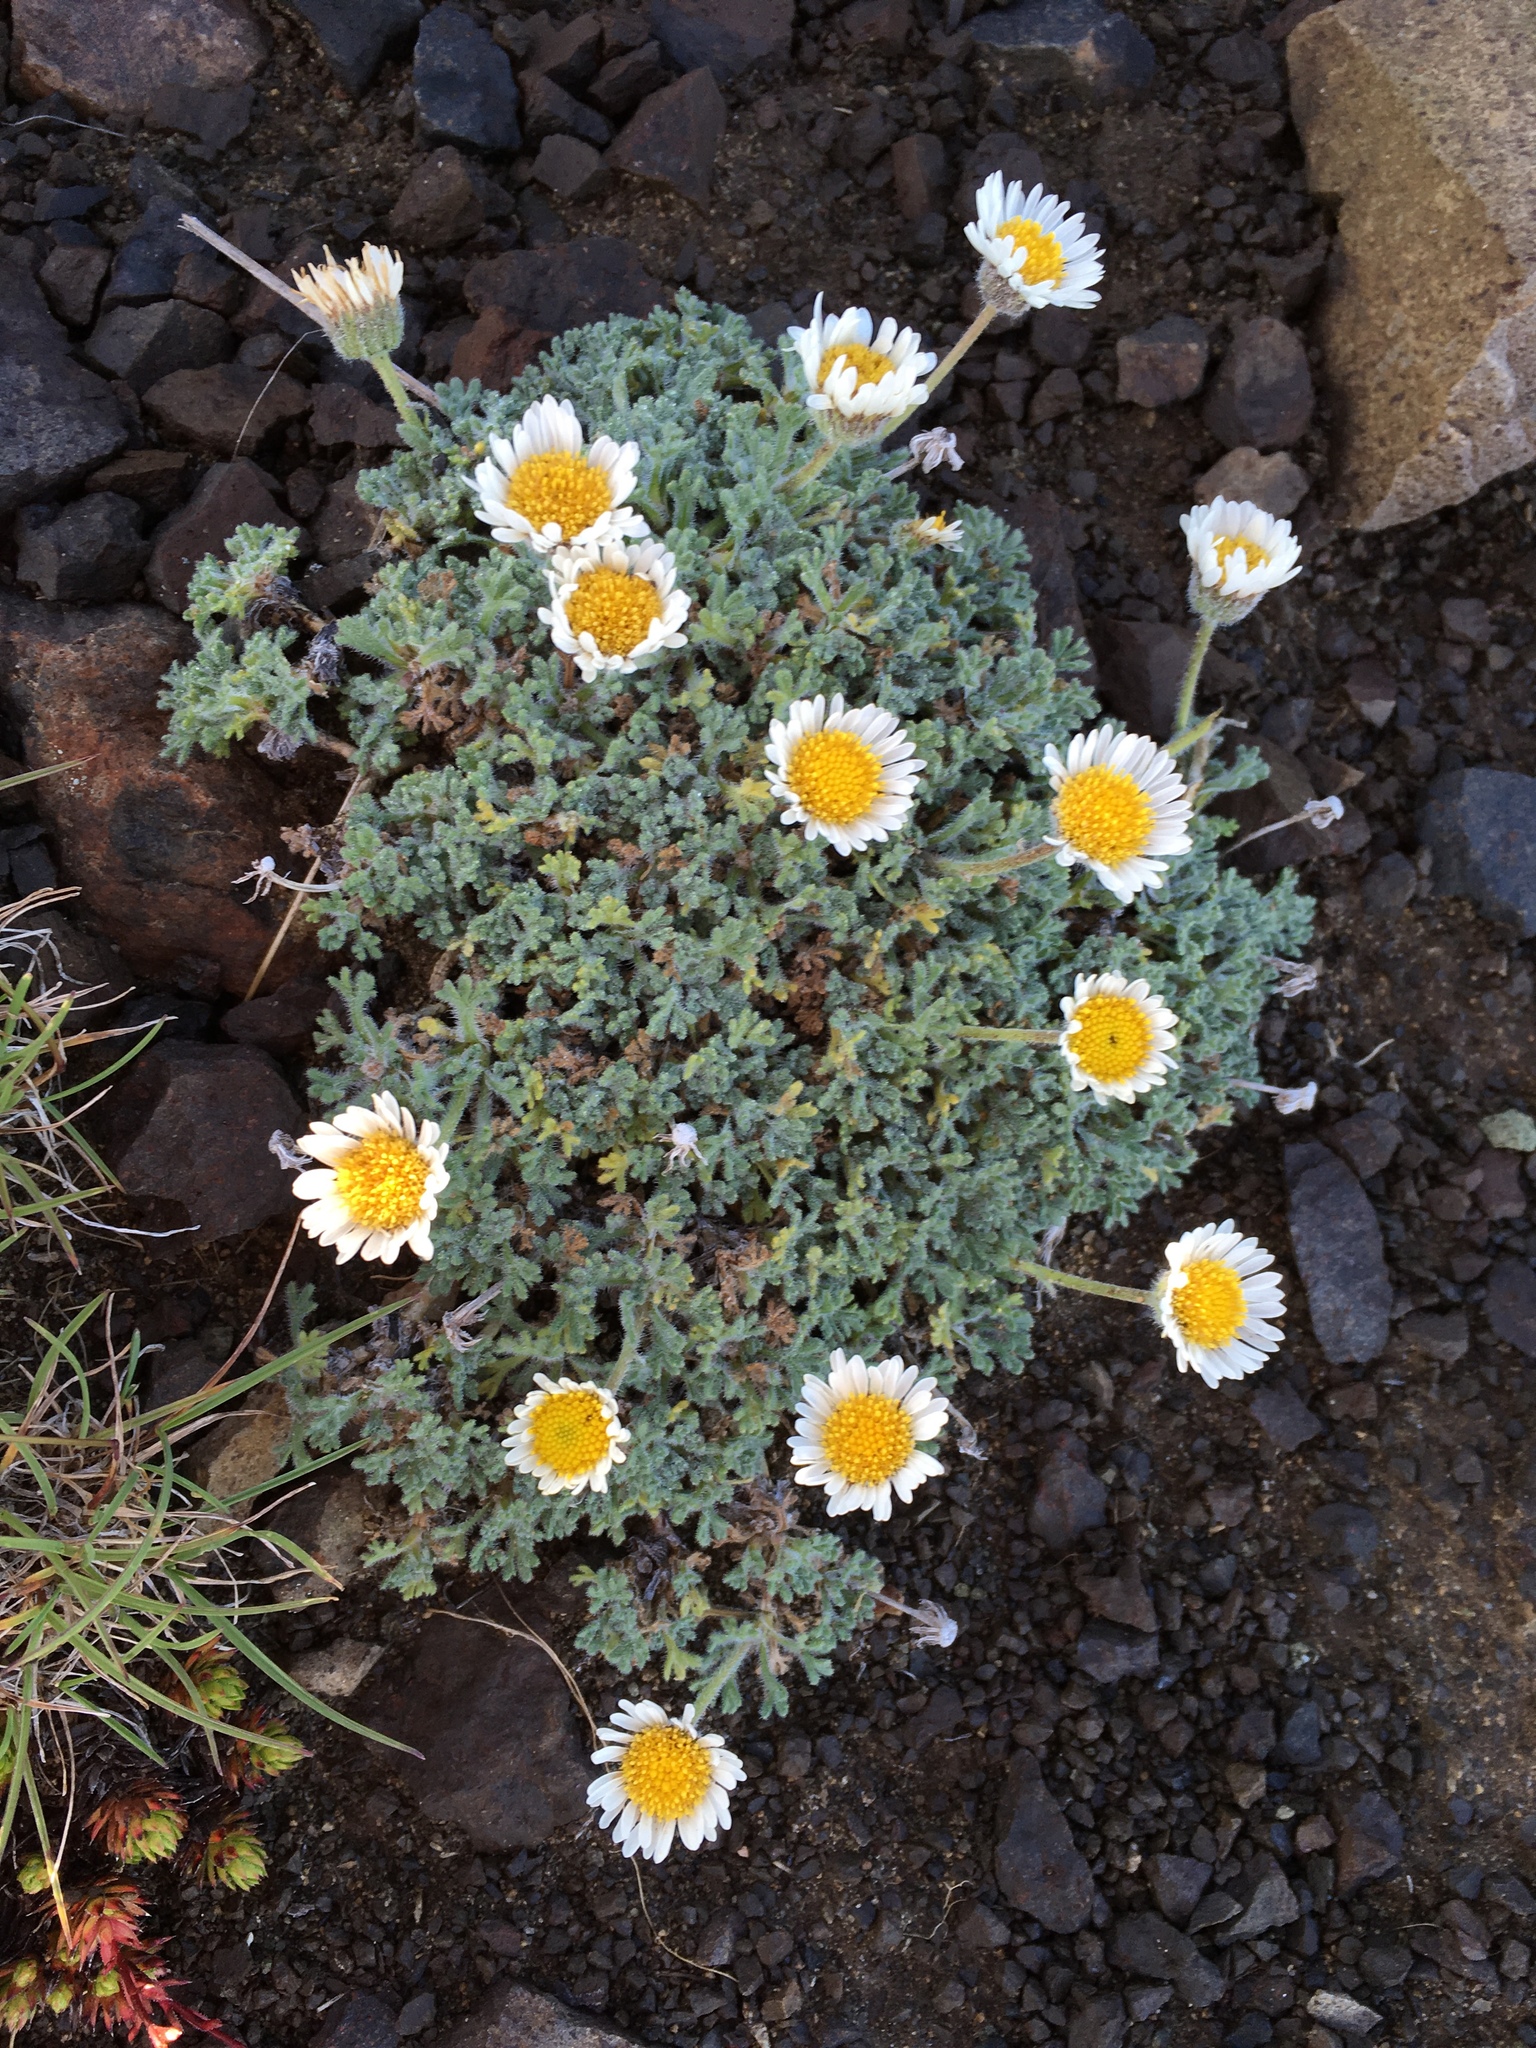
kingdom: Plantae
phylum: Tracheophyta
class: Magnoliopsida
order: Asterales
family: Asteraceae
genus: Erigeron
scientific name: Erigeron compositus
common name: Dwarf mountain fleabane
